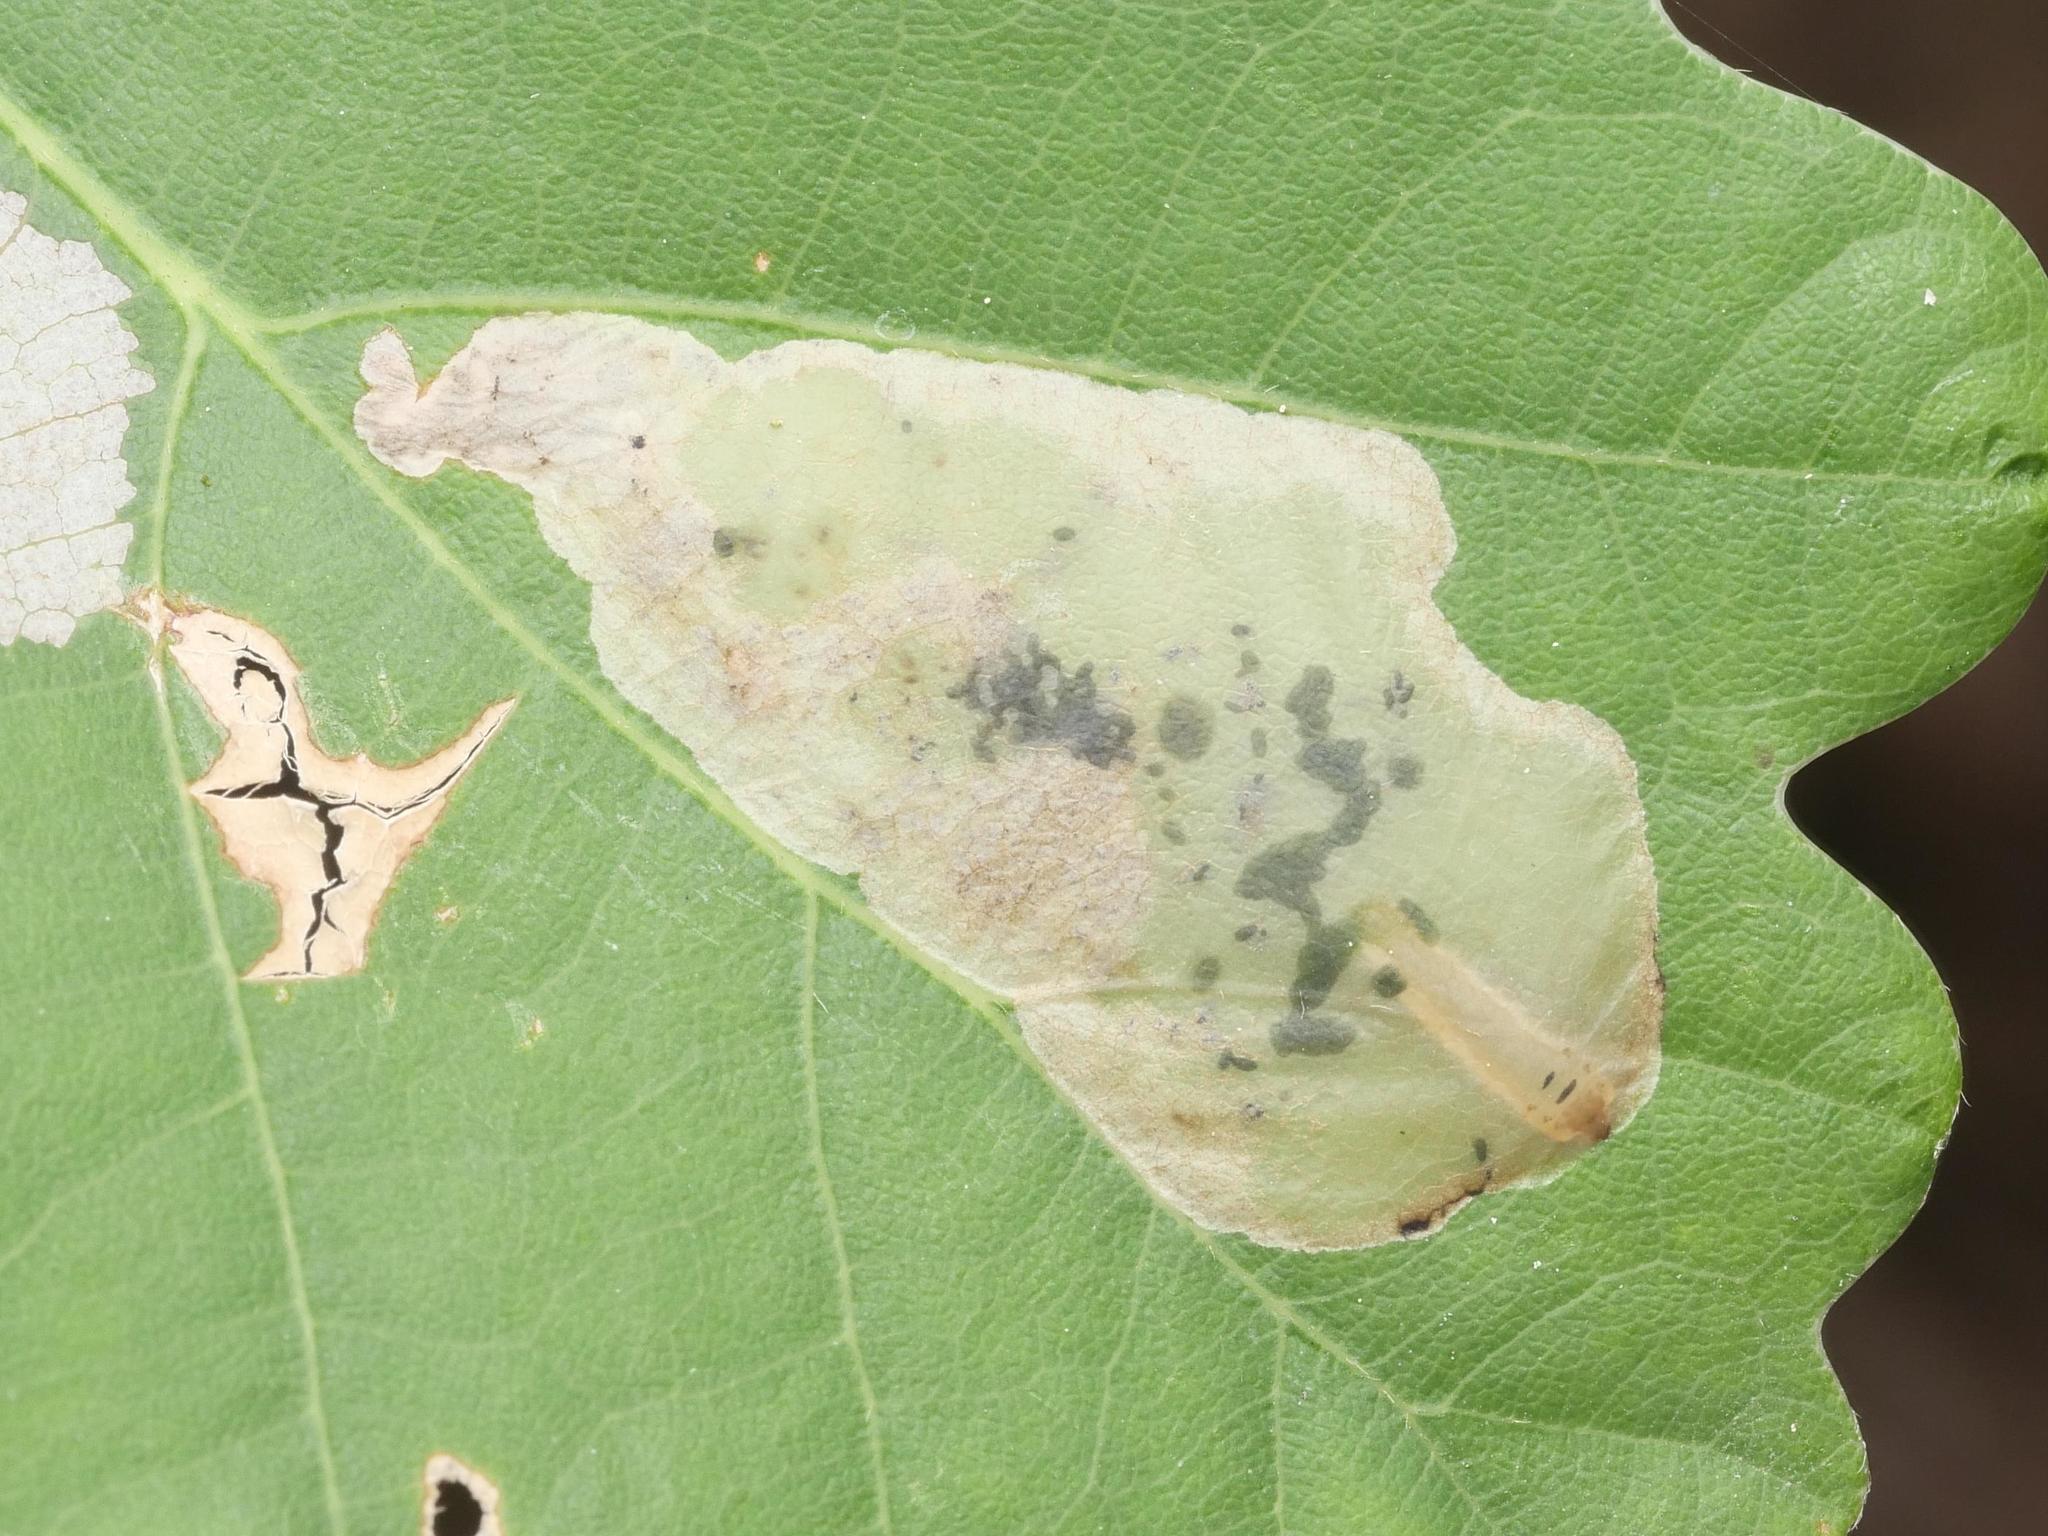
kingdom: Animalia
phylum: Arthropoda
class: Insecta
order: Hymenoptera
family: Tenthredinidae
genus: Profenusa
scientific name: Profenusa pygmaea
